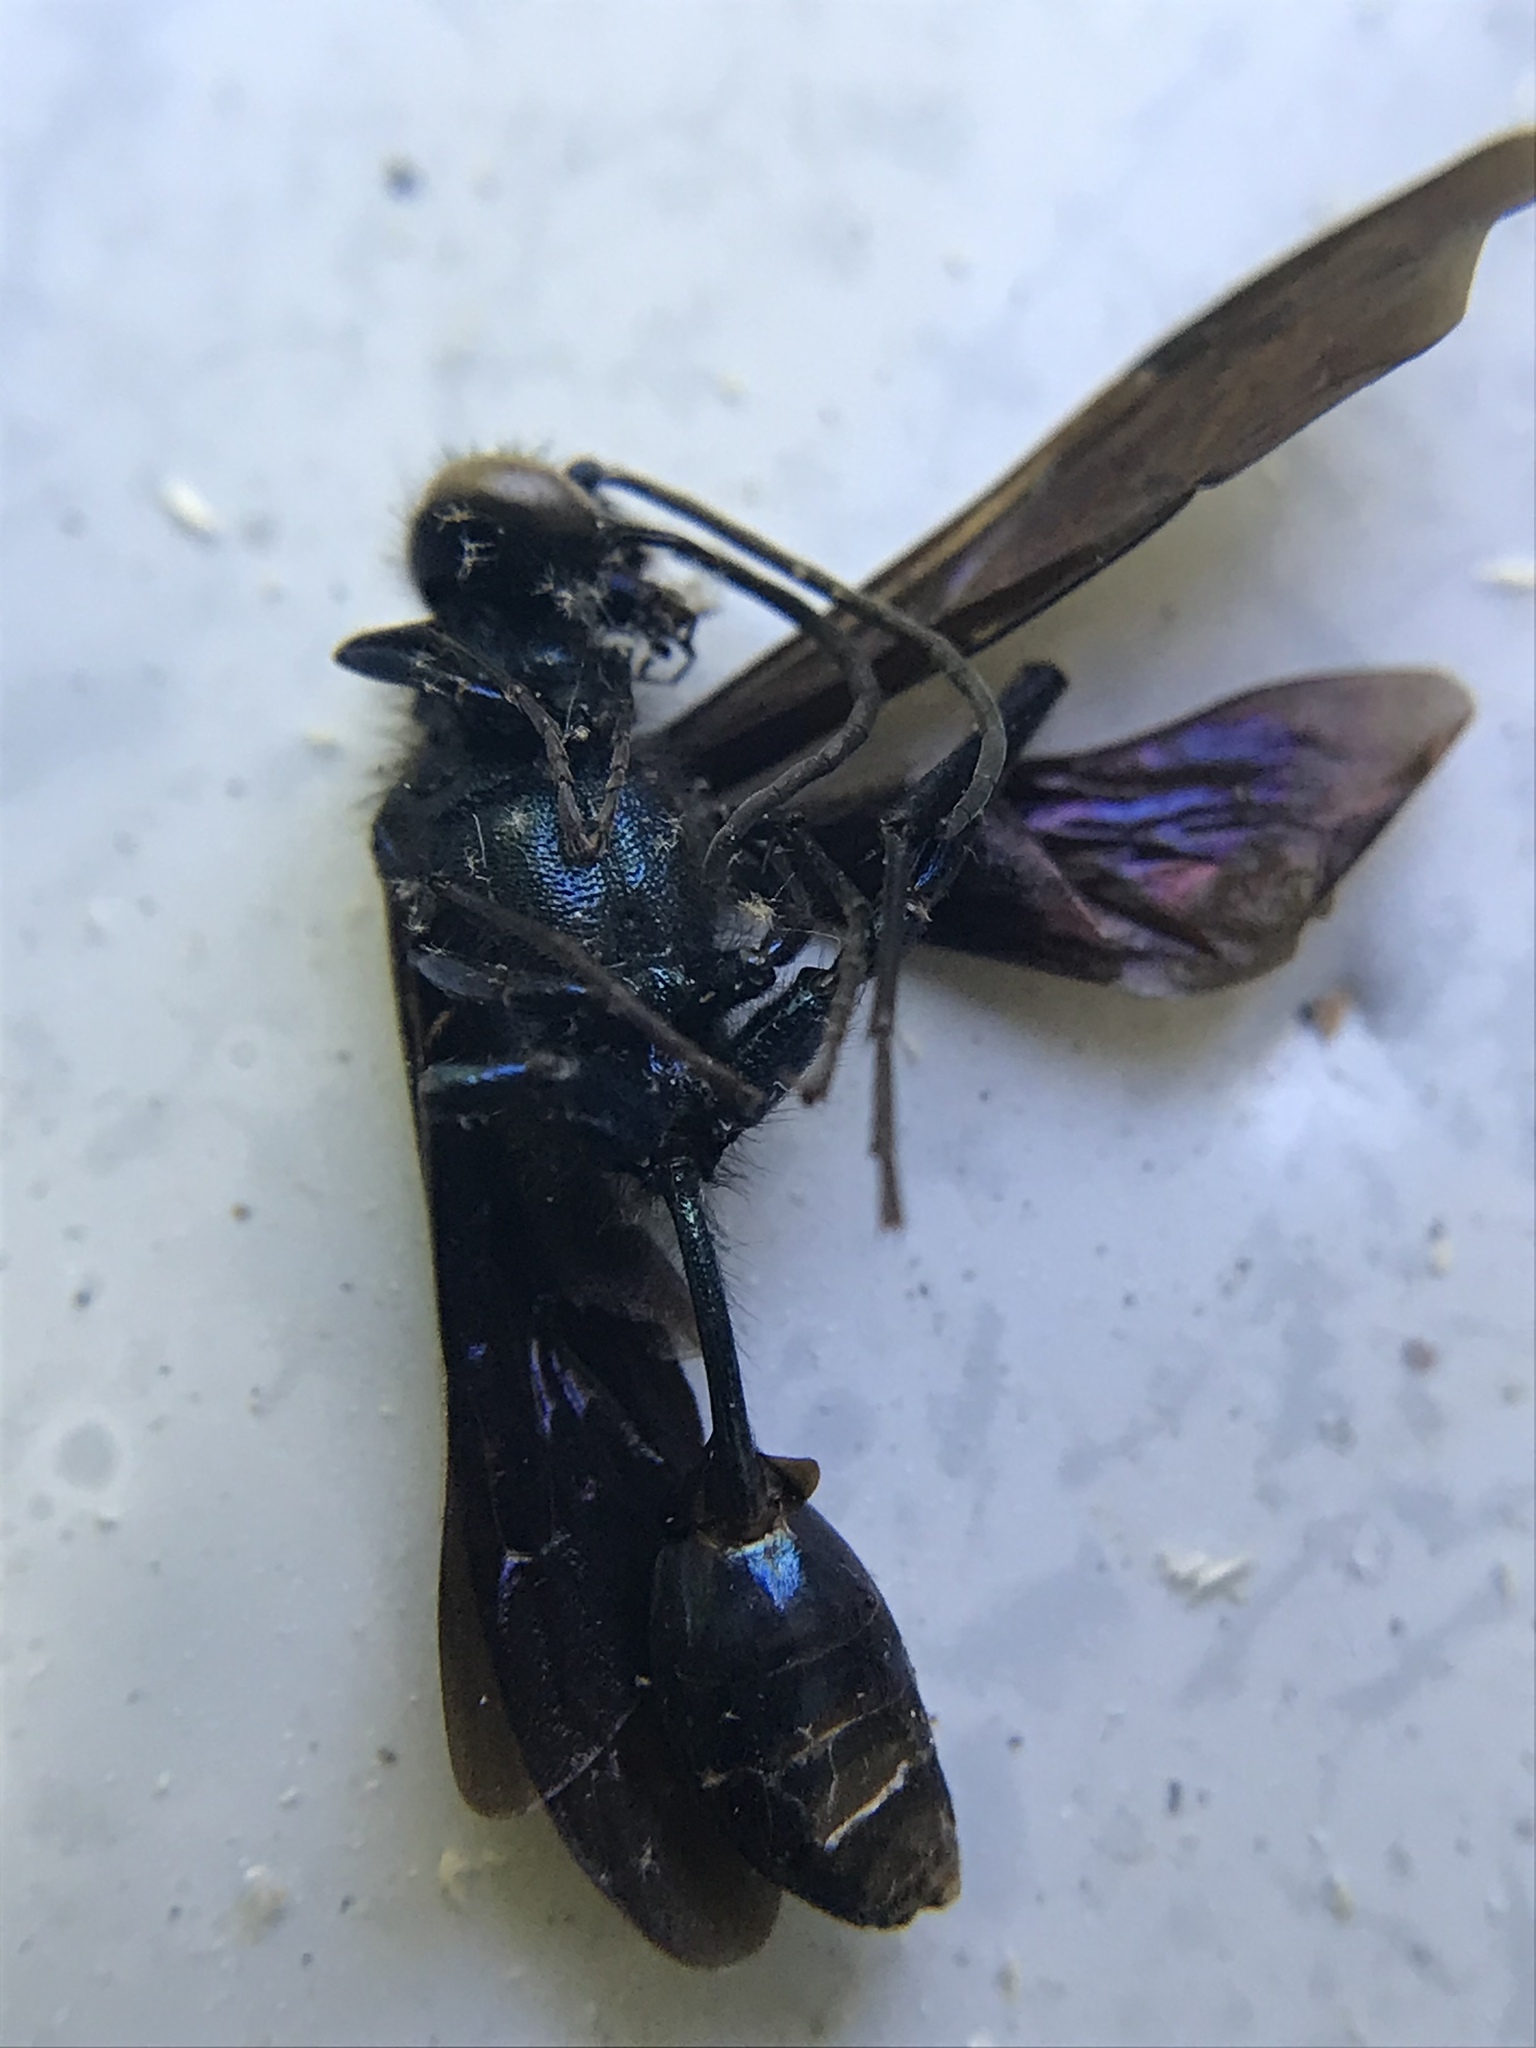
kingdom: Animalia
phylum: Arthropoda
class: Insecta
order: Hymenoptera
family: Sphecidae
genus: Chalybion
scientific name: Chalybion californicum
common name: Mud dauber
